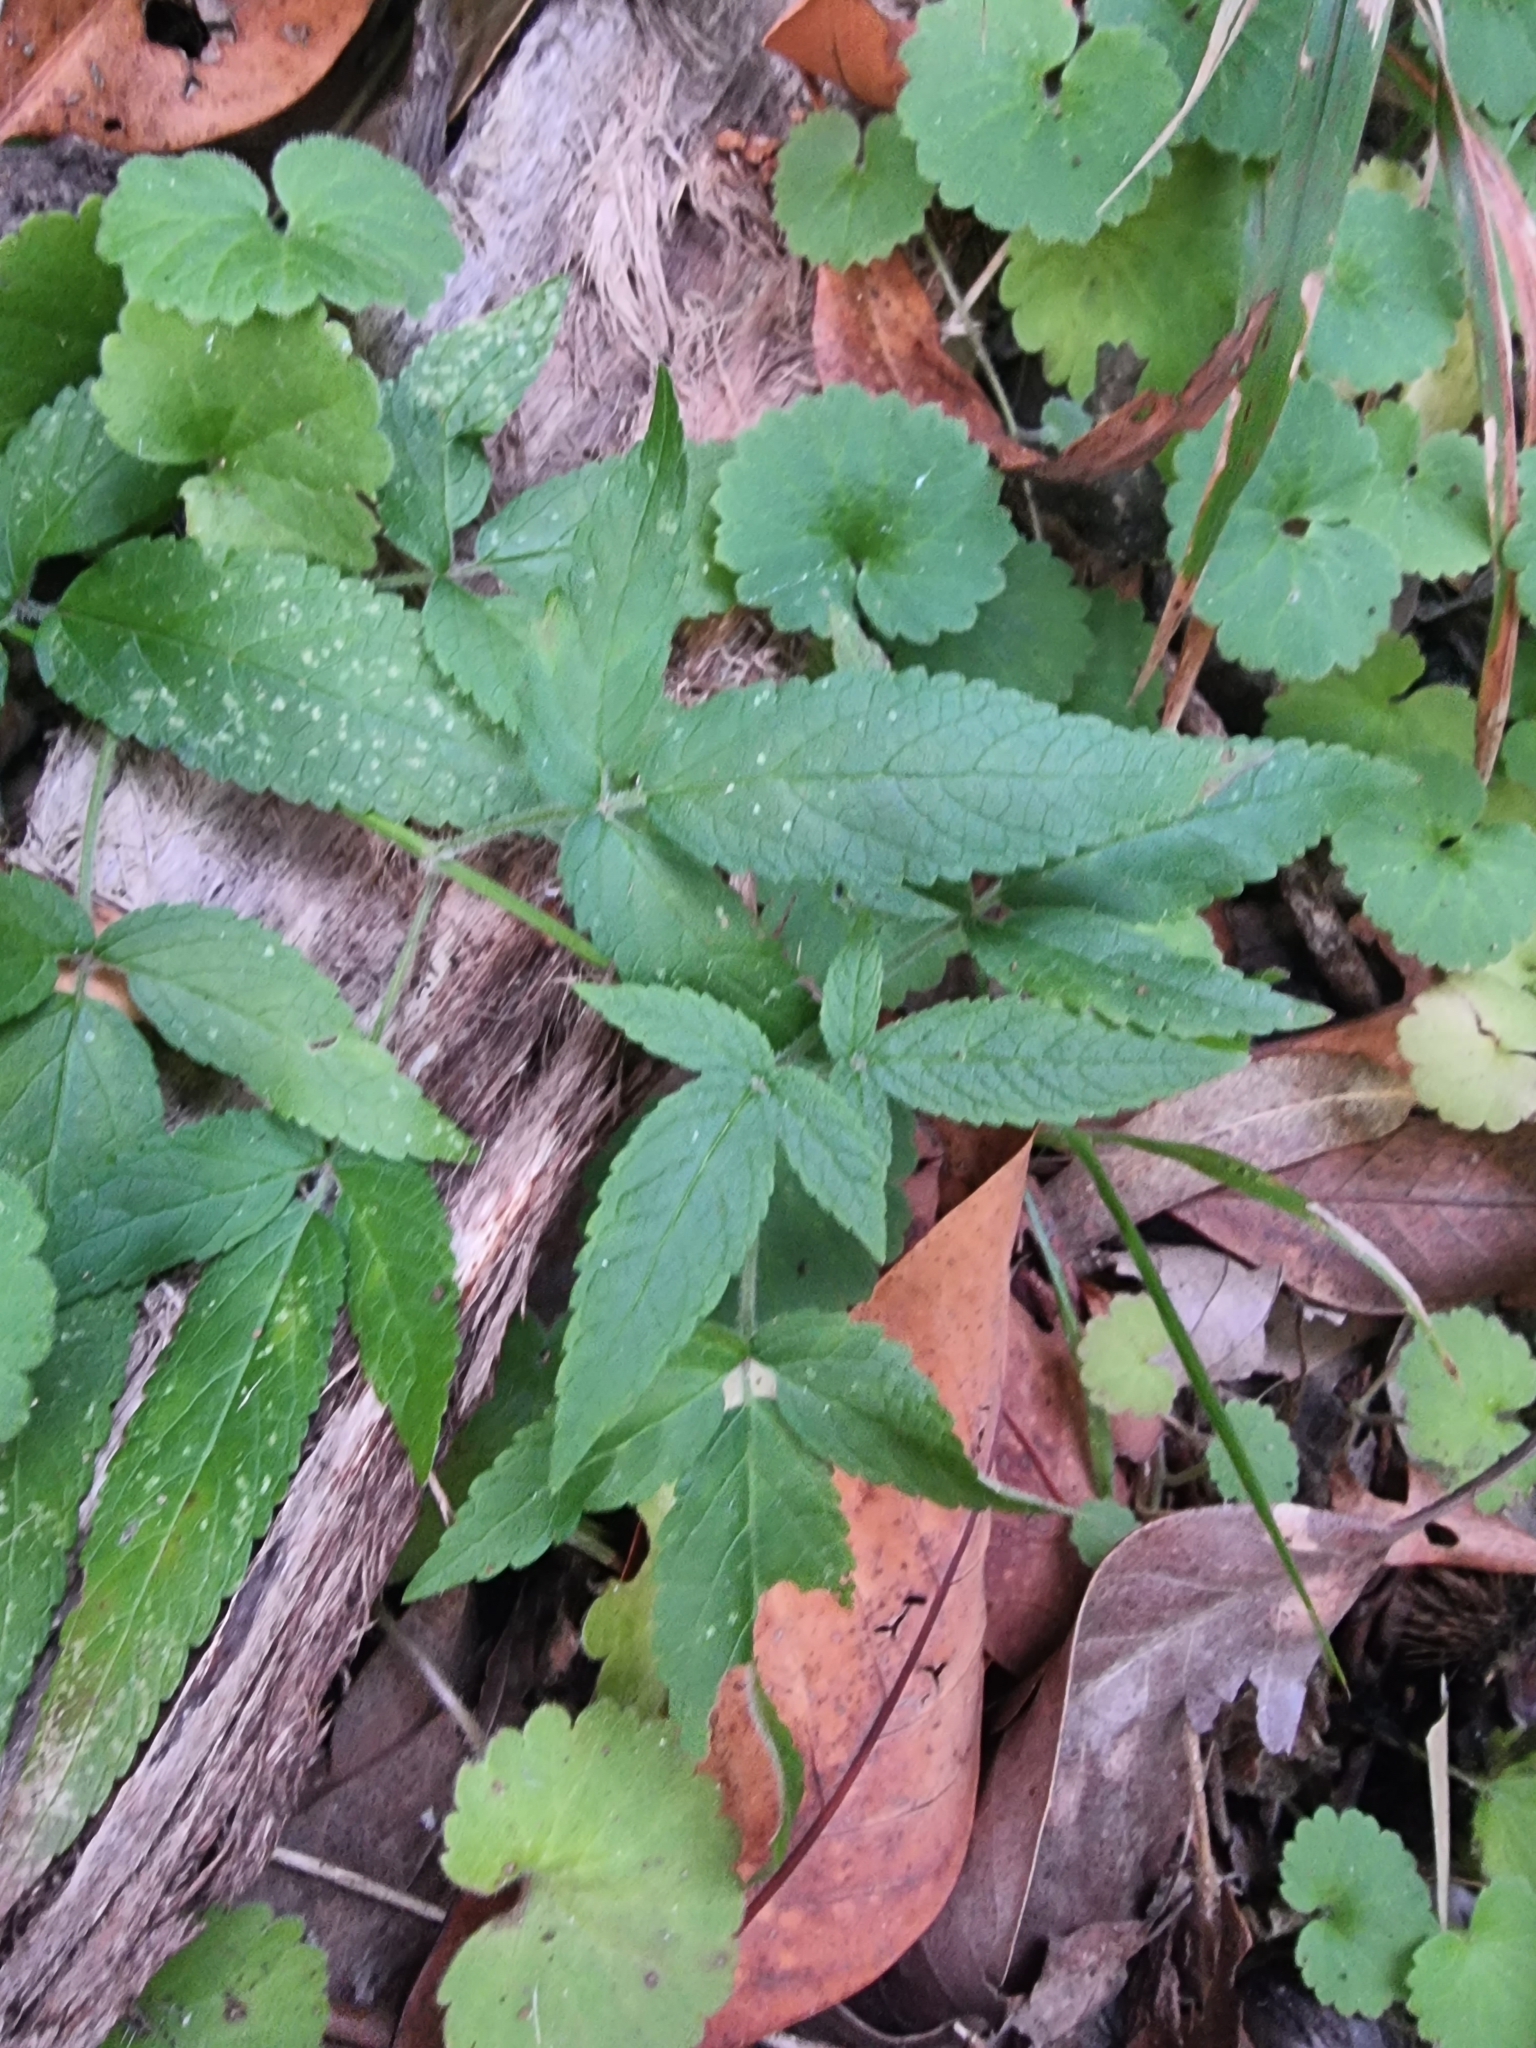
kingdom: Plantae
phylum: Tracheophyta
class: Magnoliopsida
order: Lamiales
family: Lamiaceae
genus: Cedronella
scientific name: Cedronella canariensis
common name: Canary islands balm
